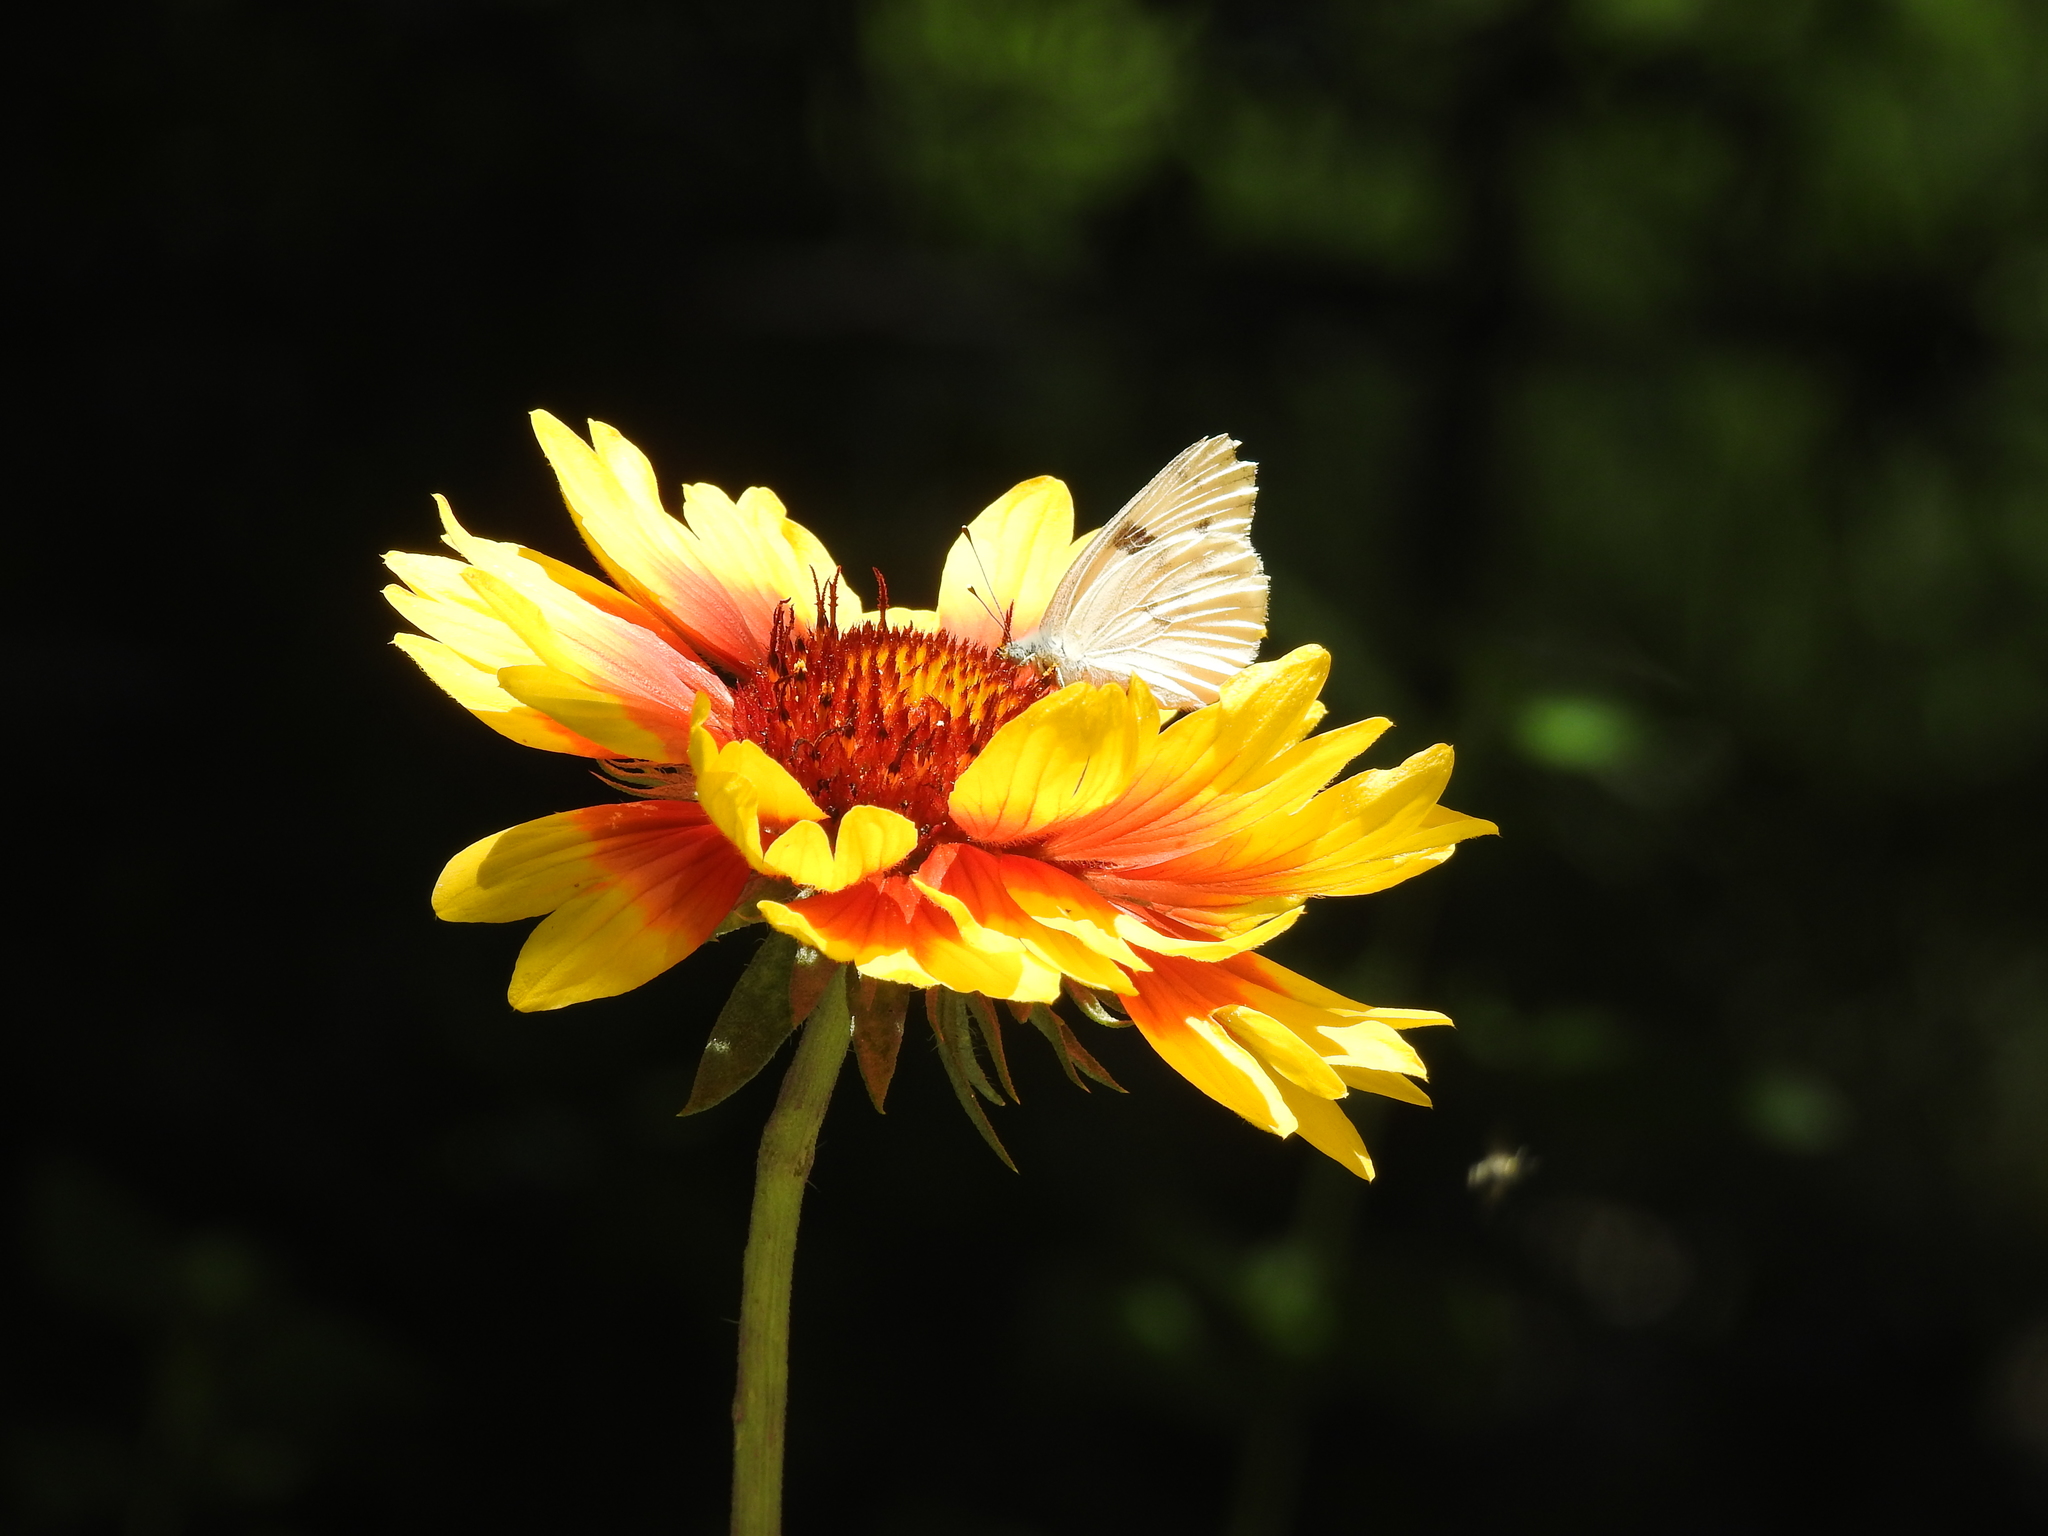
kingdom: Animalia
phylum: Arthropoda
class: Insecta
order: Lepidoptera
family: Pieridae
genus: Pontia
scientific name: Pontia protodice
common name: Checkered white
